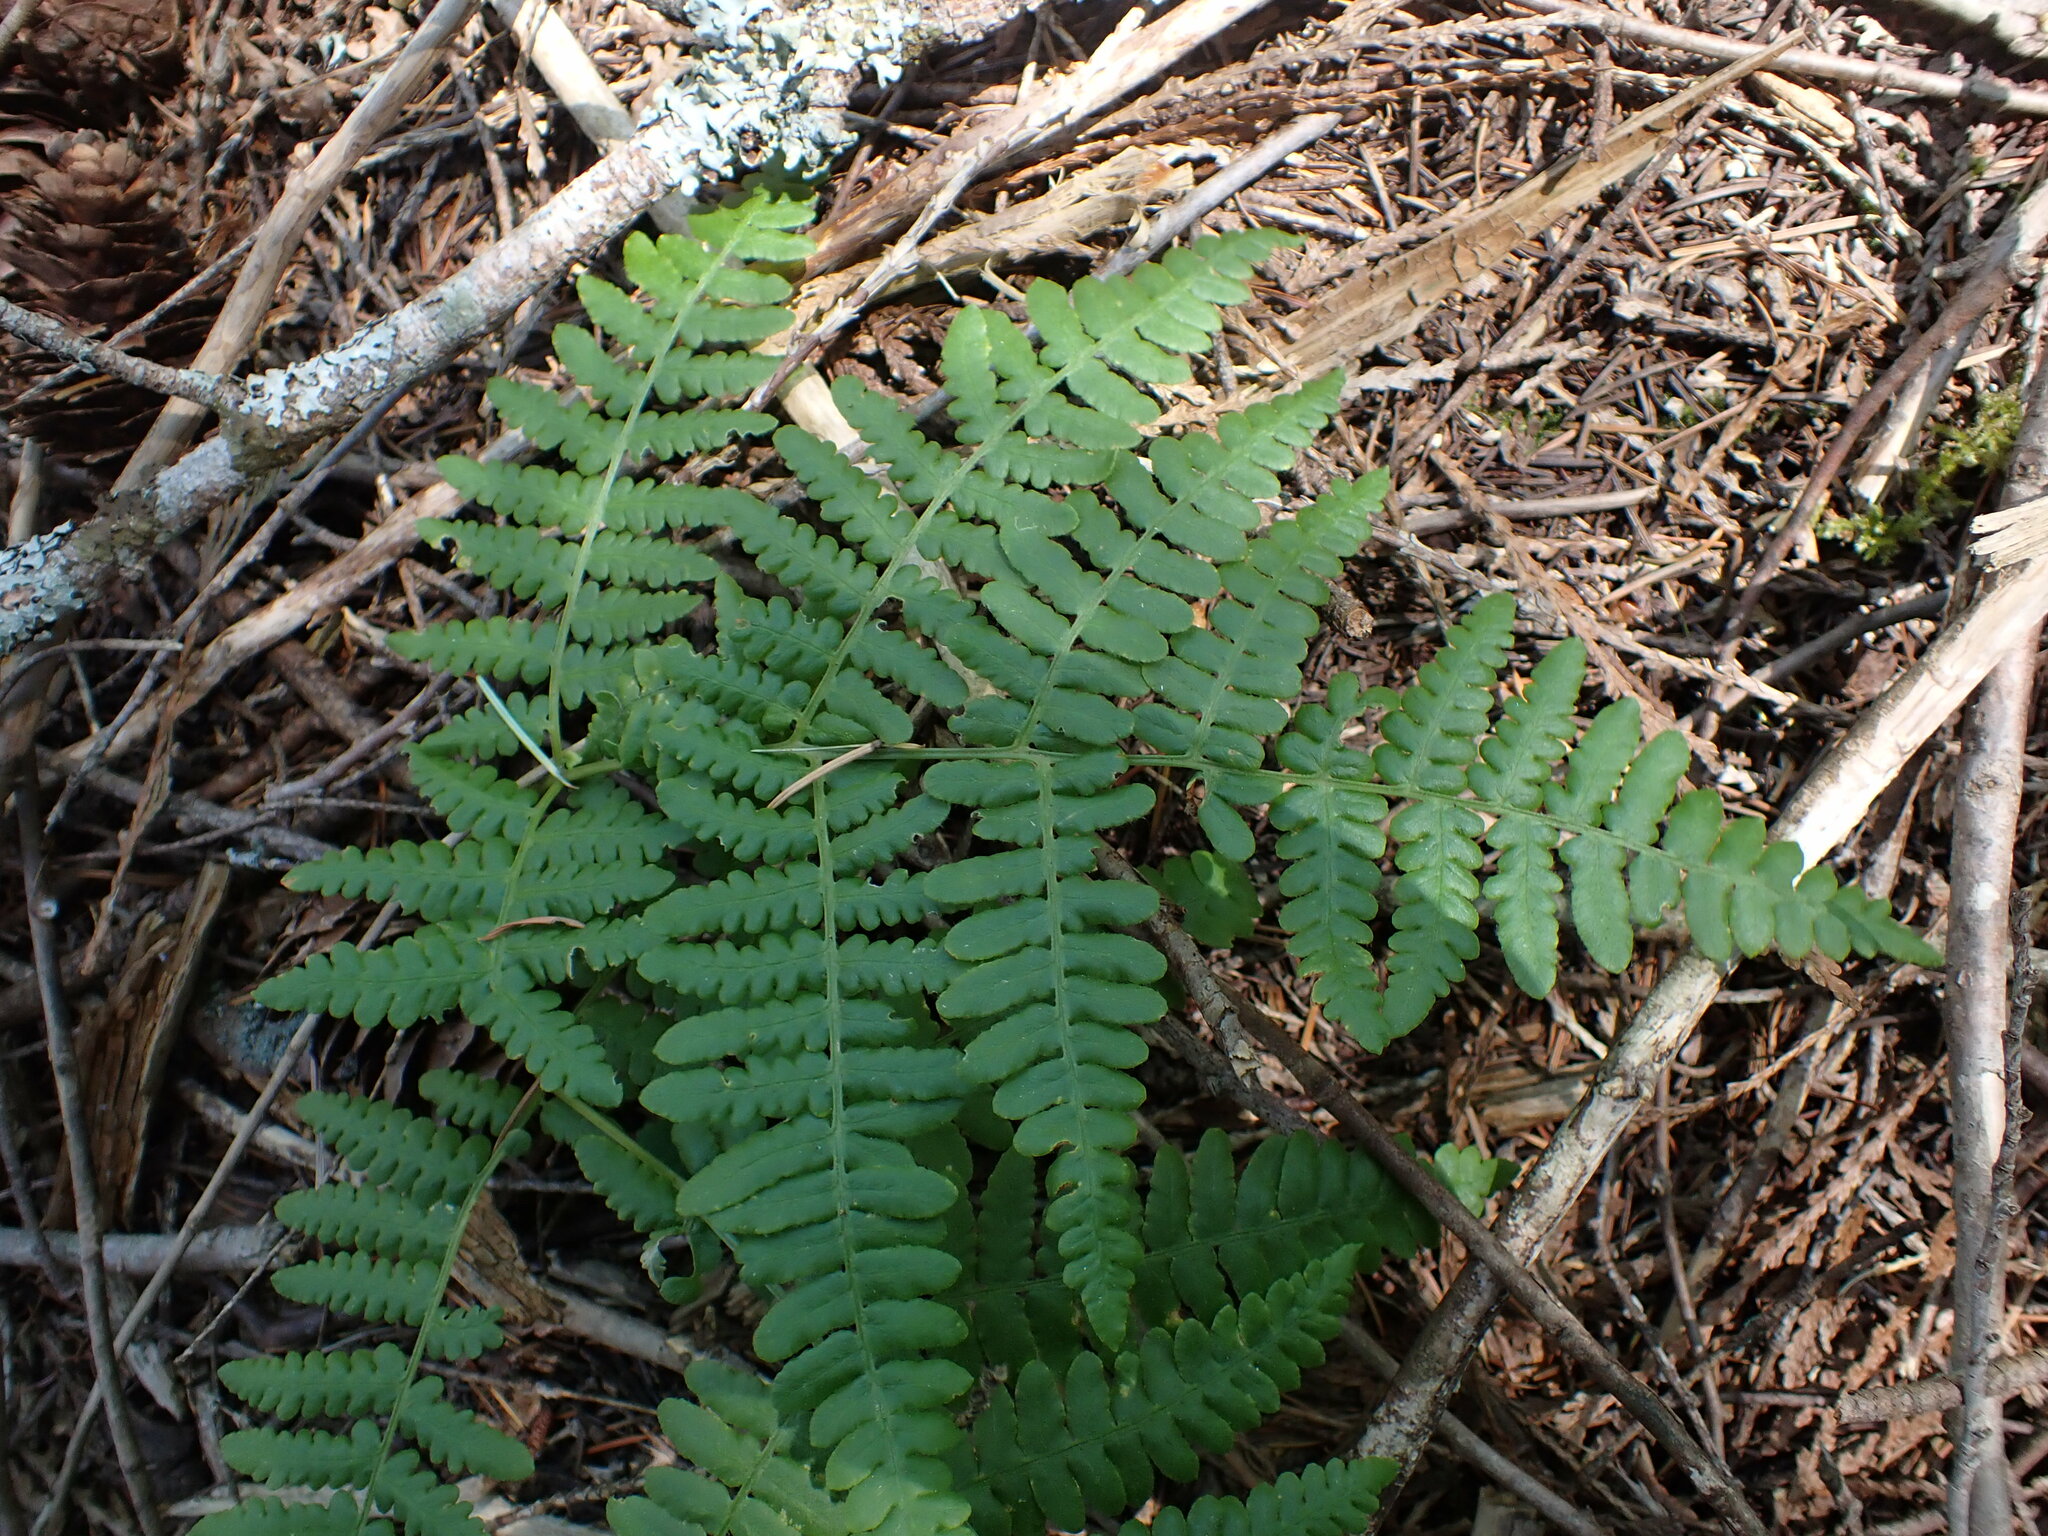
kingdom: Plantae
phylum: Tracheophyta
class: Polypodiopsida
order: Polypodiales
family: Dennstaedtiaceae
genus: Pteridium
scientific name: Pteridium aquilinum
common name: Bracken
